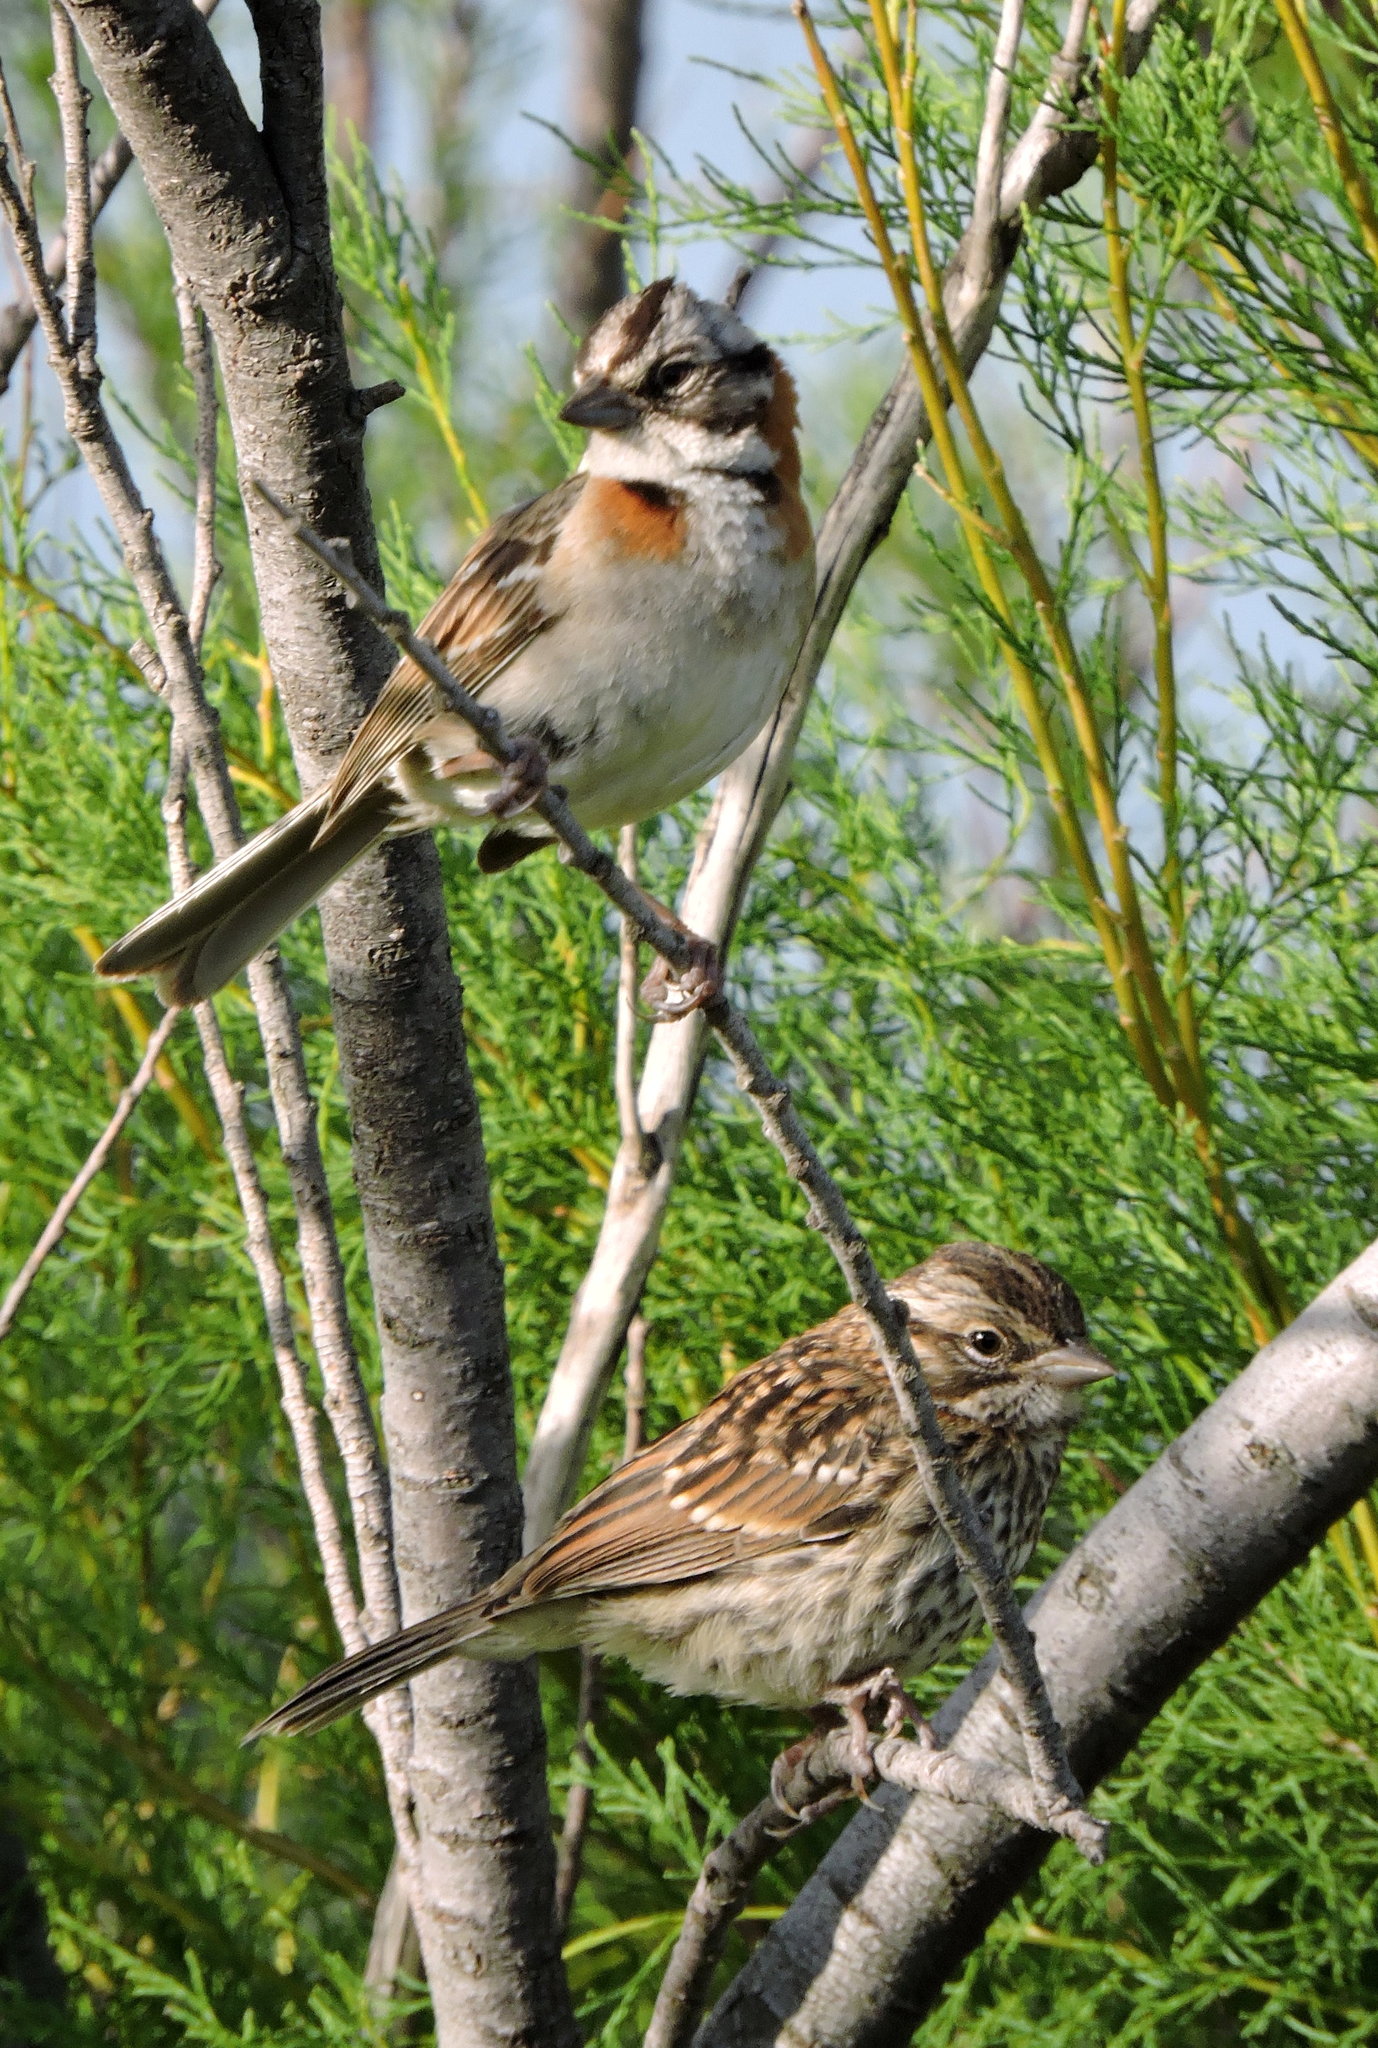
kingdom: Animalia
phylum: Chordata
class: Aves
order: Passeriformes
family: Passerellidae
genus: Zonotrichia
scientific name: Zonotrichia capensis
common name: Rufous-collared sparrow
